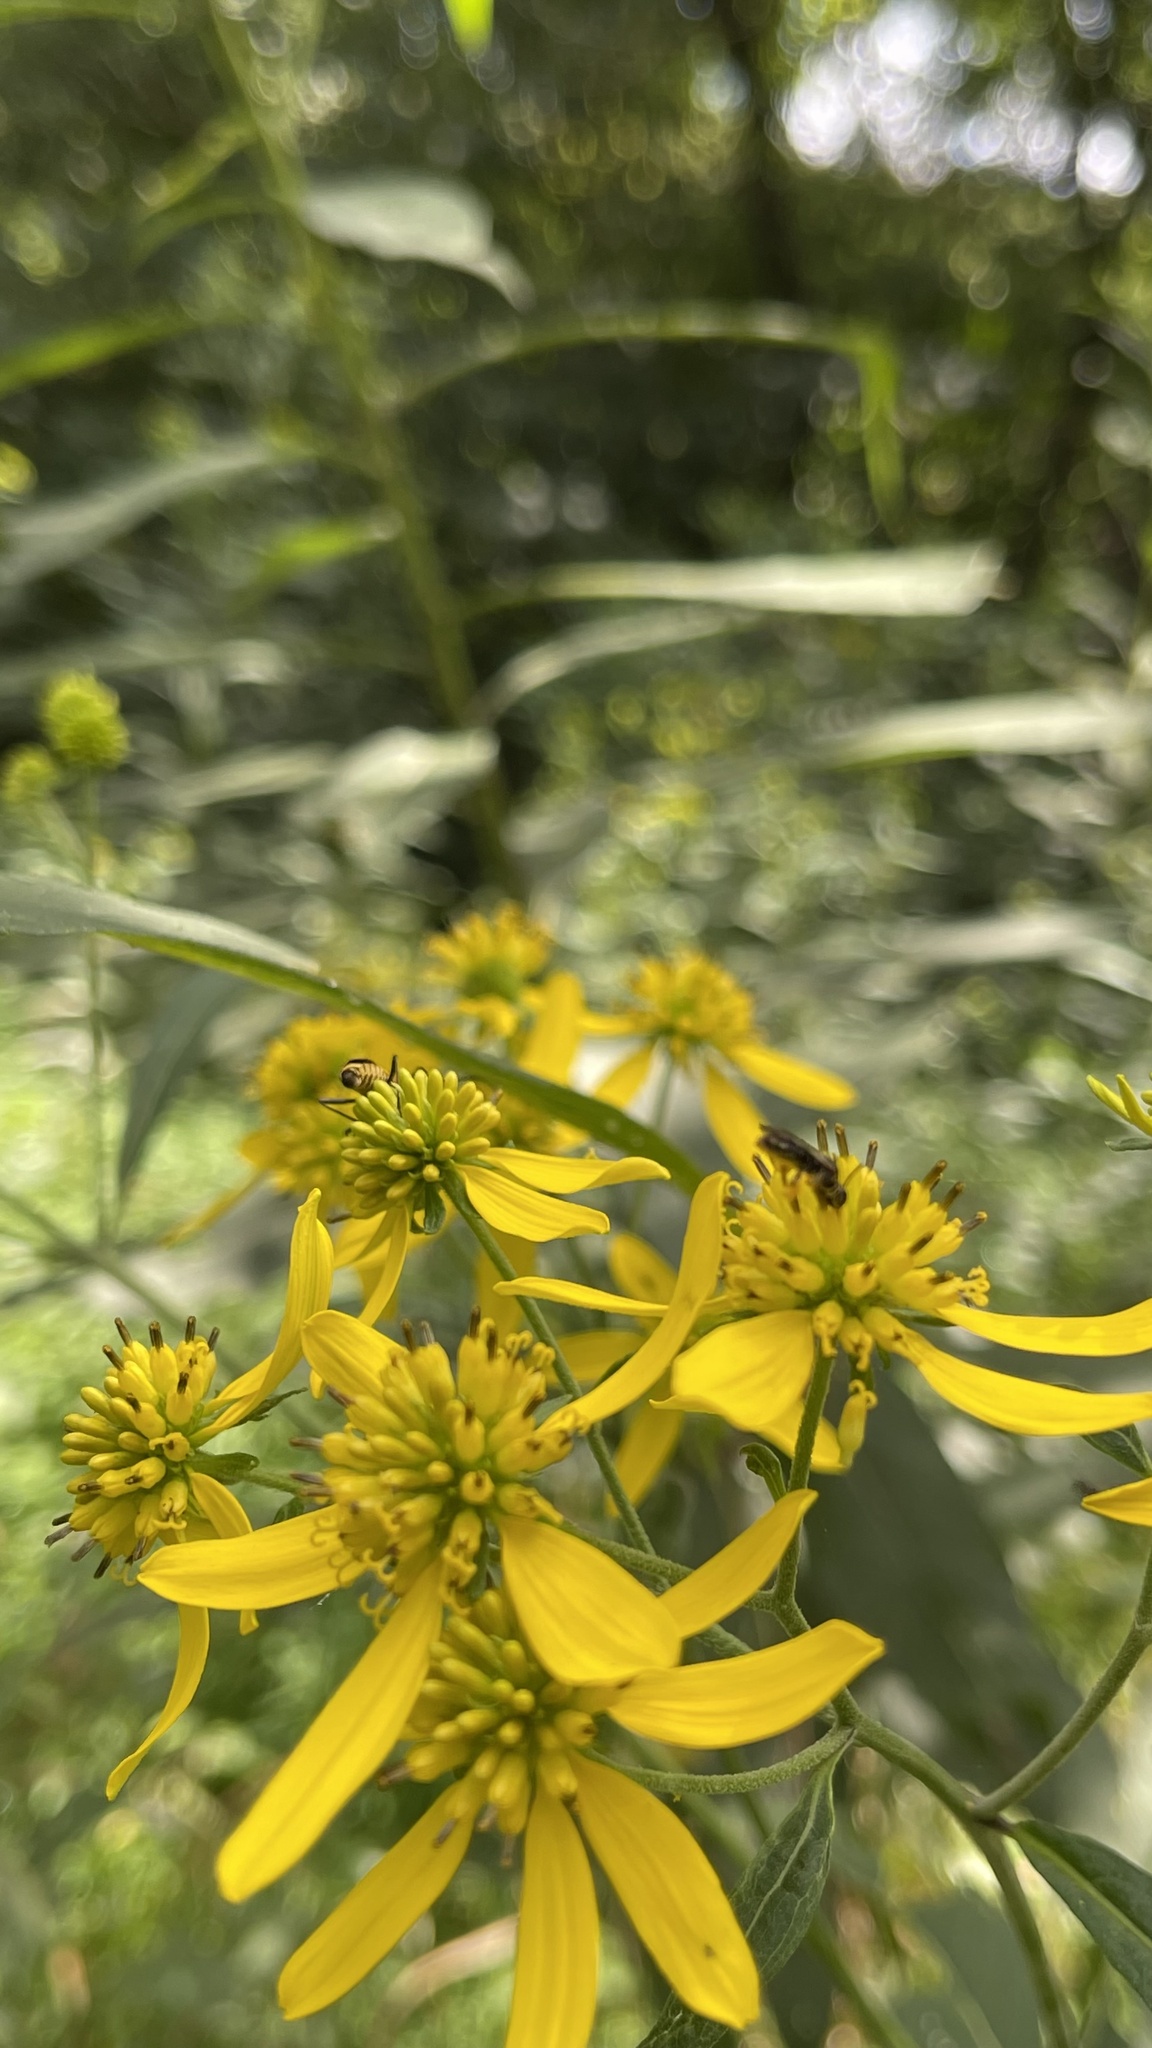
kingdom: Plantae
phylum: Tracheophyta
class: Magnoliopsida
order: Asterales
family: Asteraceae
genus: Verbesina
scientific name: Verbesina alternifolia
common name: Wingstem
